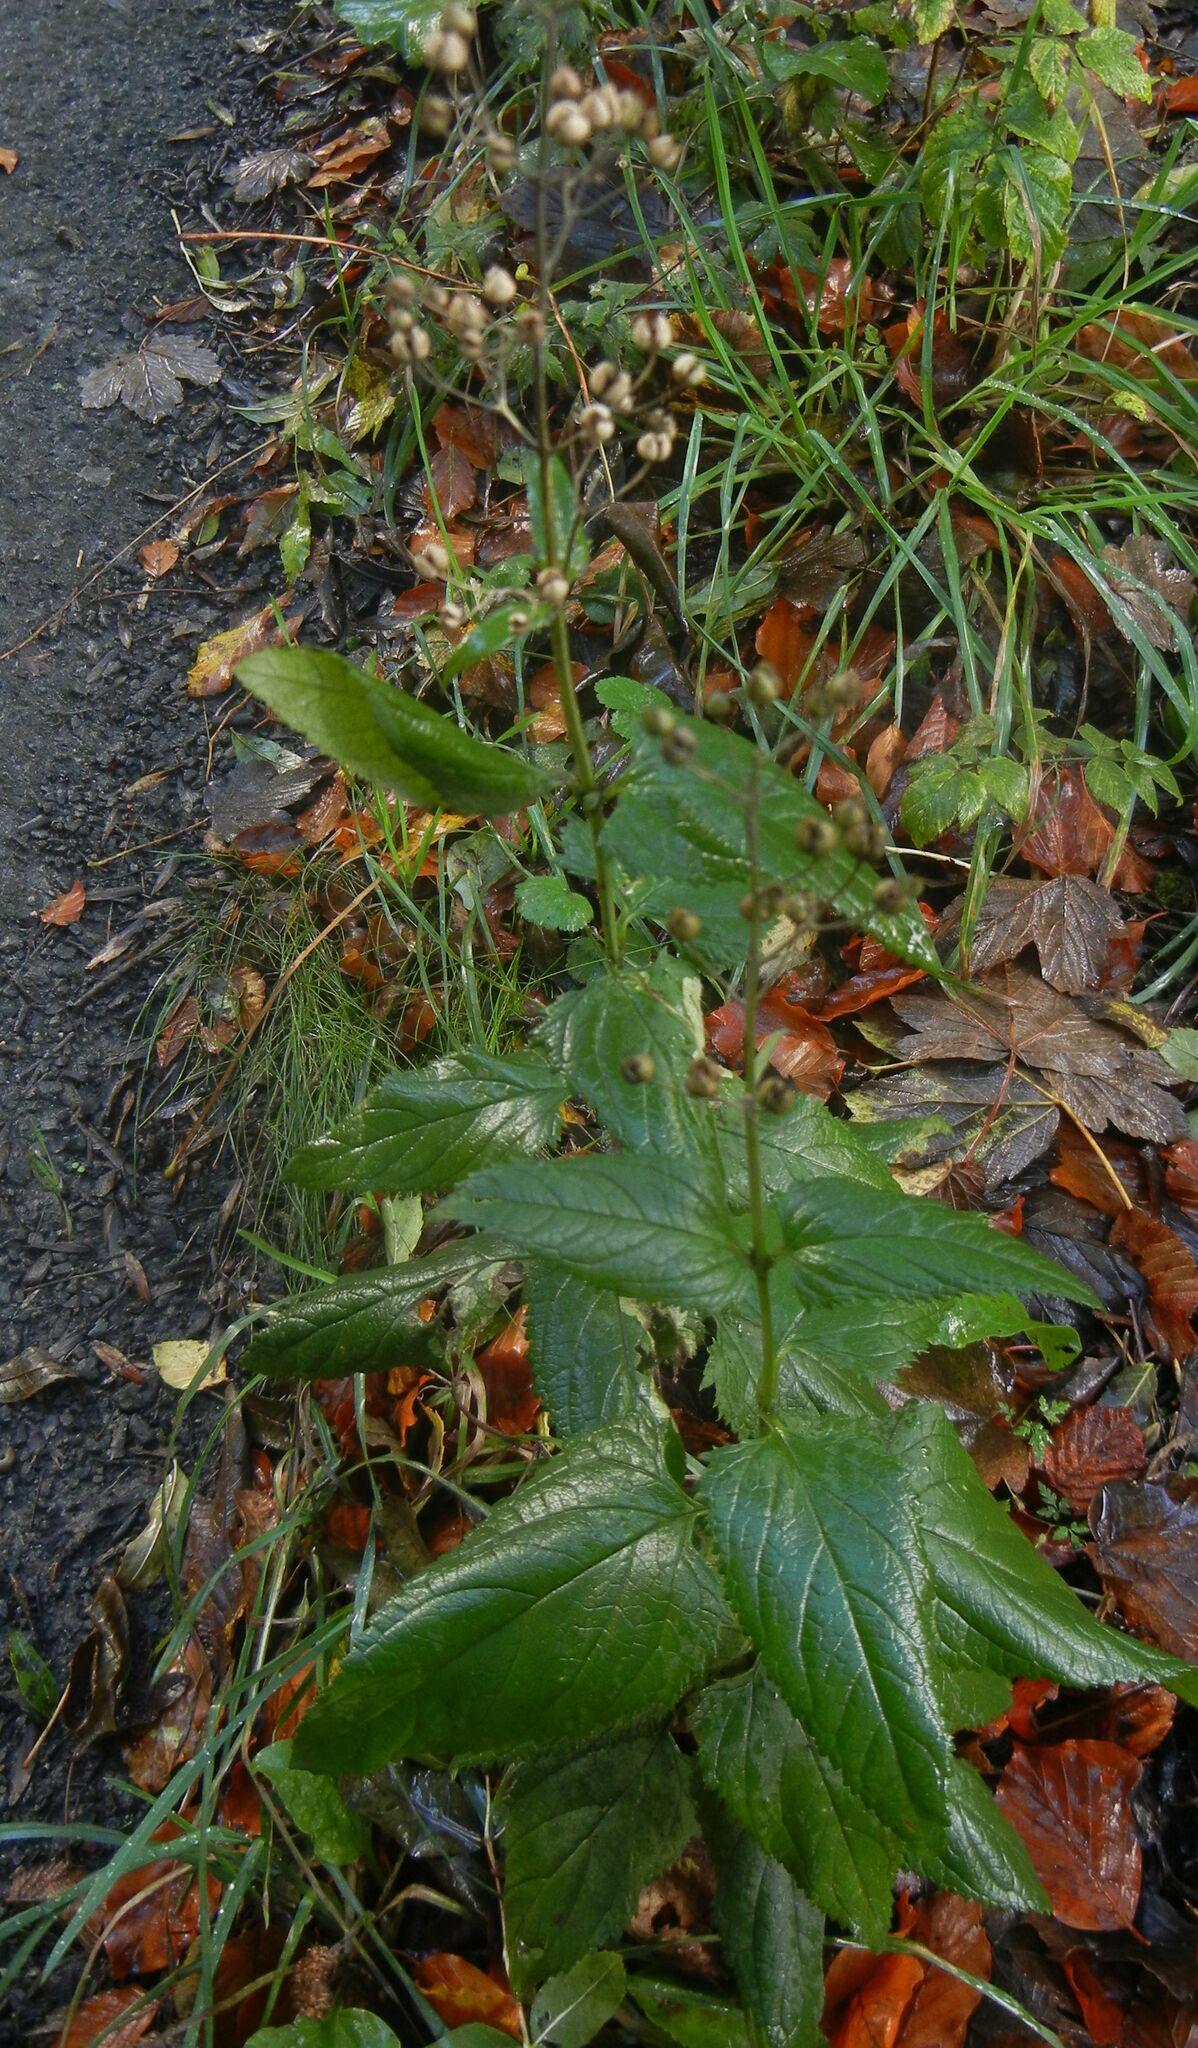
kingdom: Plantae
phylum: Tracheophyta
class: Magnoliopsida
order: Lamiales
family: Scrophulariaceae
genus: Scrophularia
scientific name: Scrophularia nodosa
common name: Common figwort
